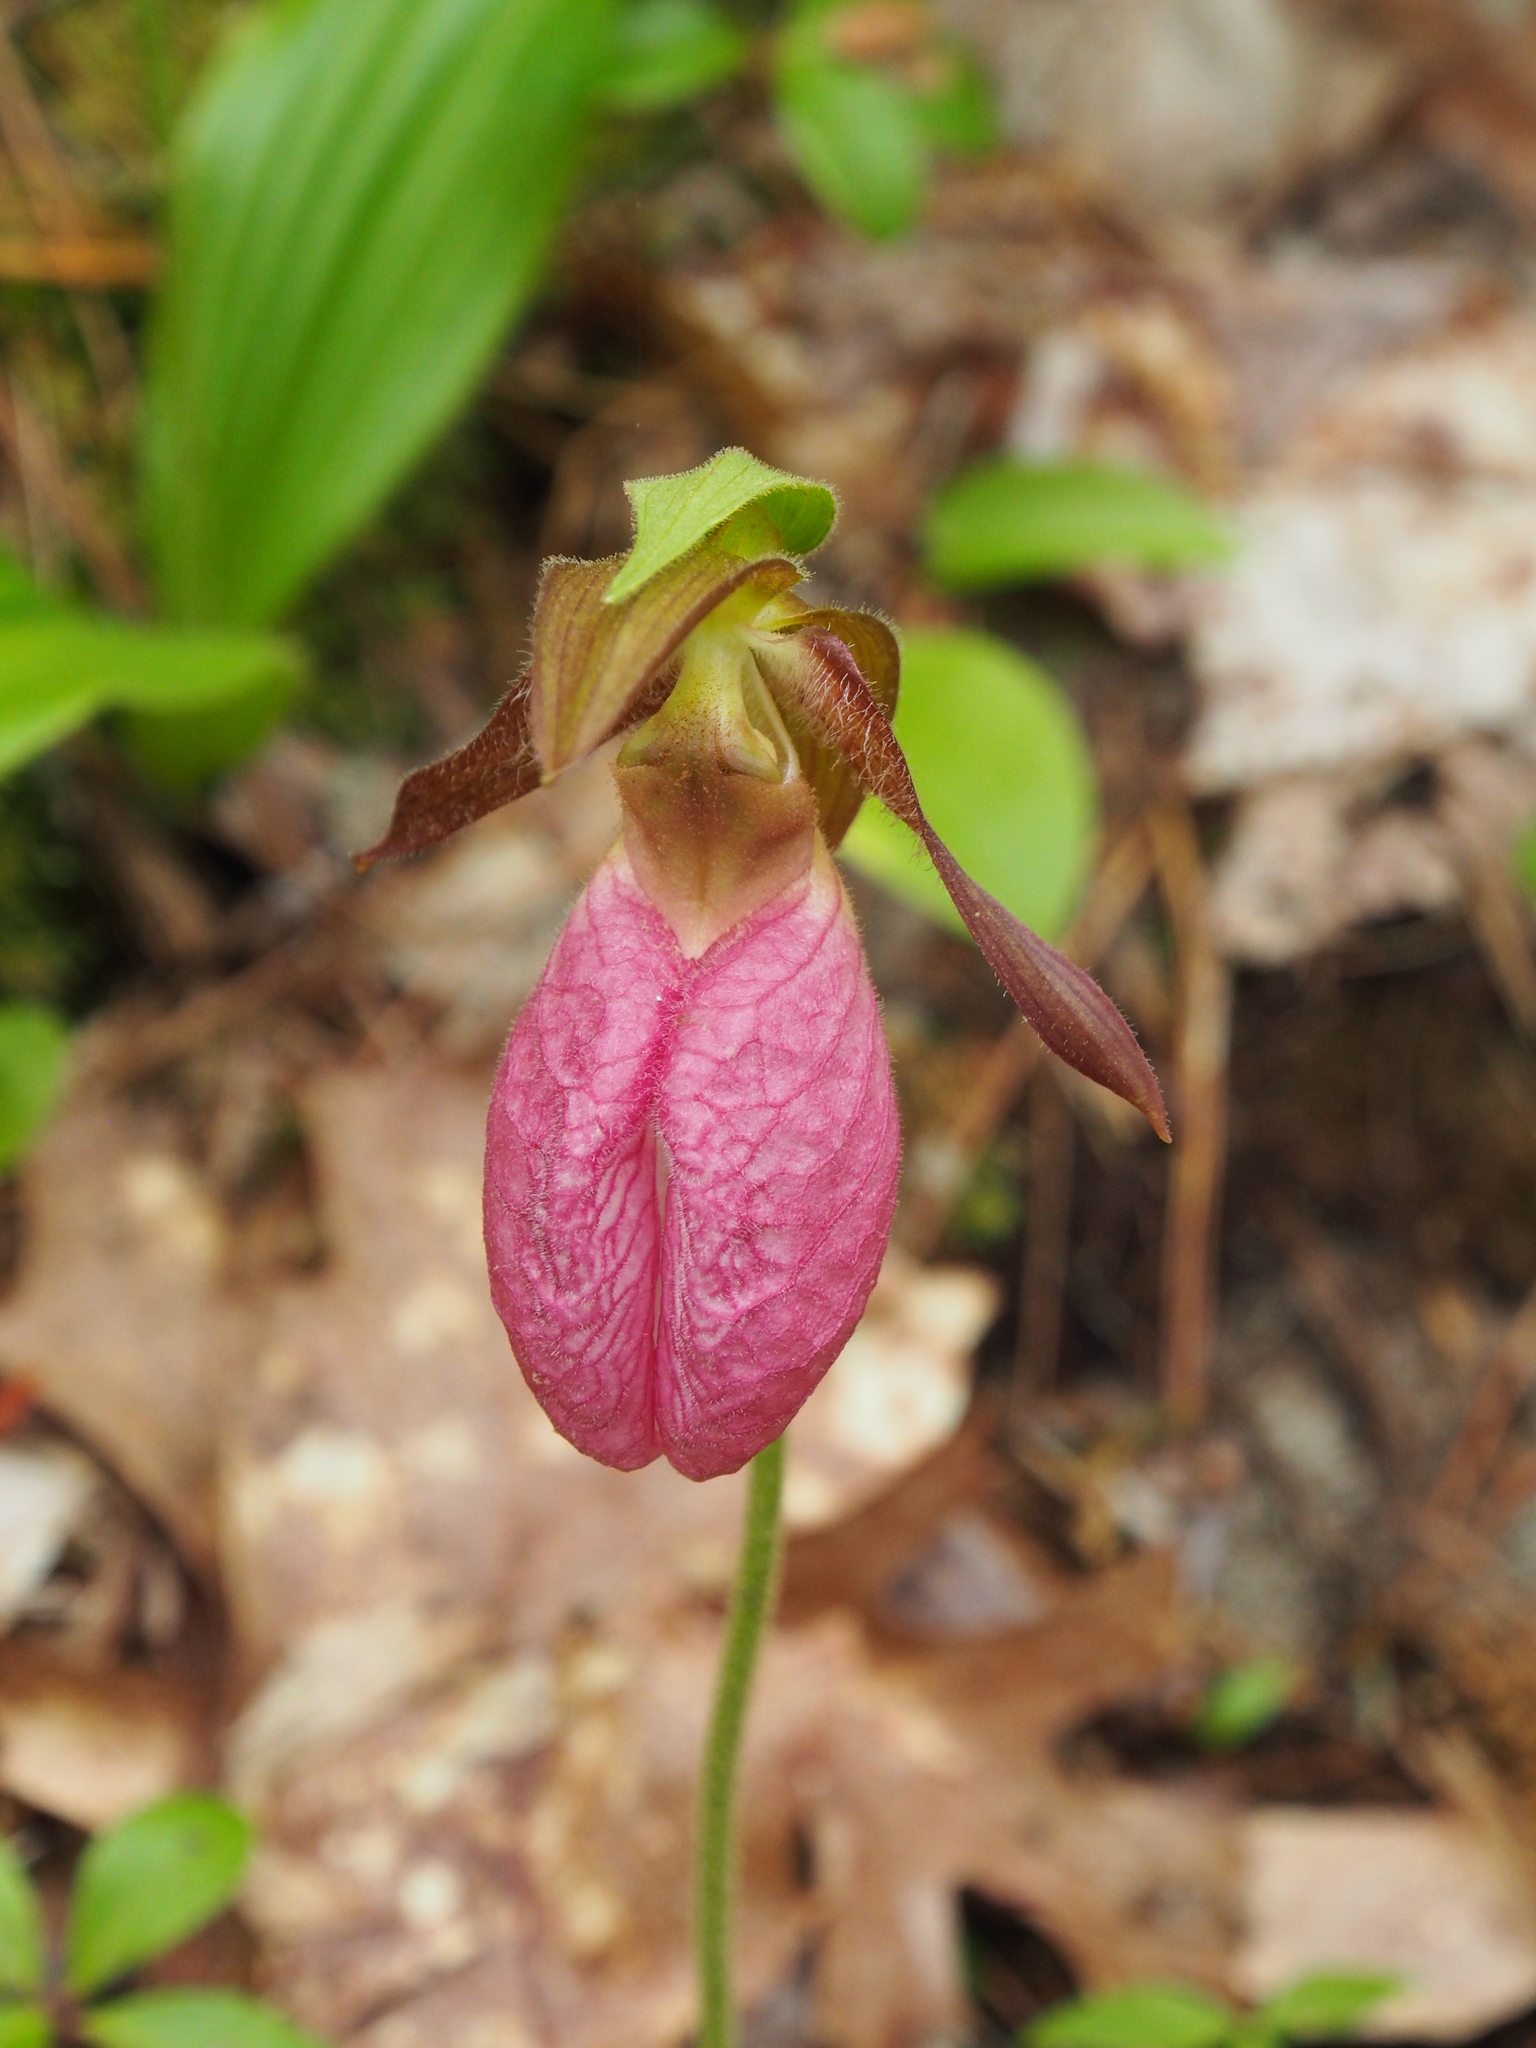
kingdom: Plantae
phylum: Tracheophyta
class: Liliopsida
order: Asparagales
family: Orchidaceae
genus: Cypripedium
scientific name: Cypripedium acaule
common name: Pink lady's-slipper
